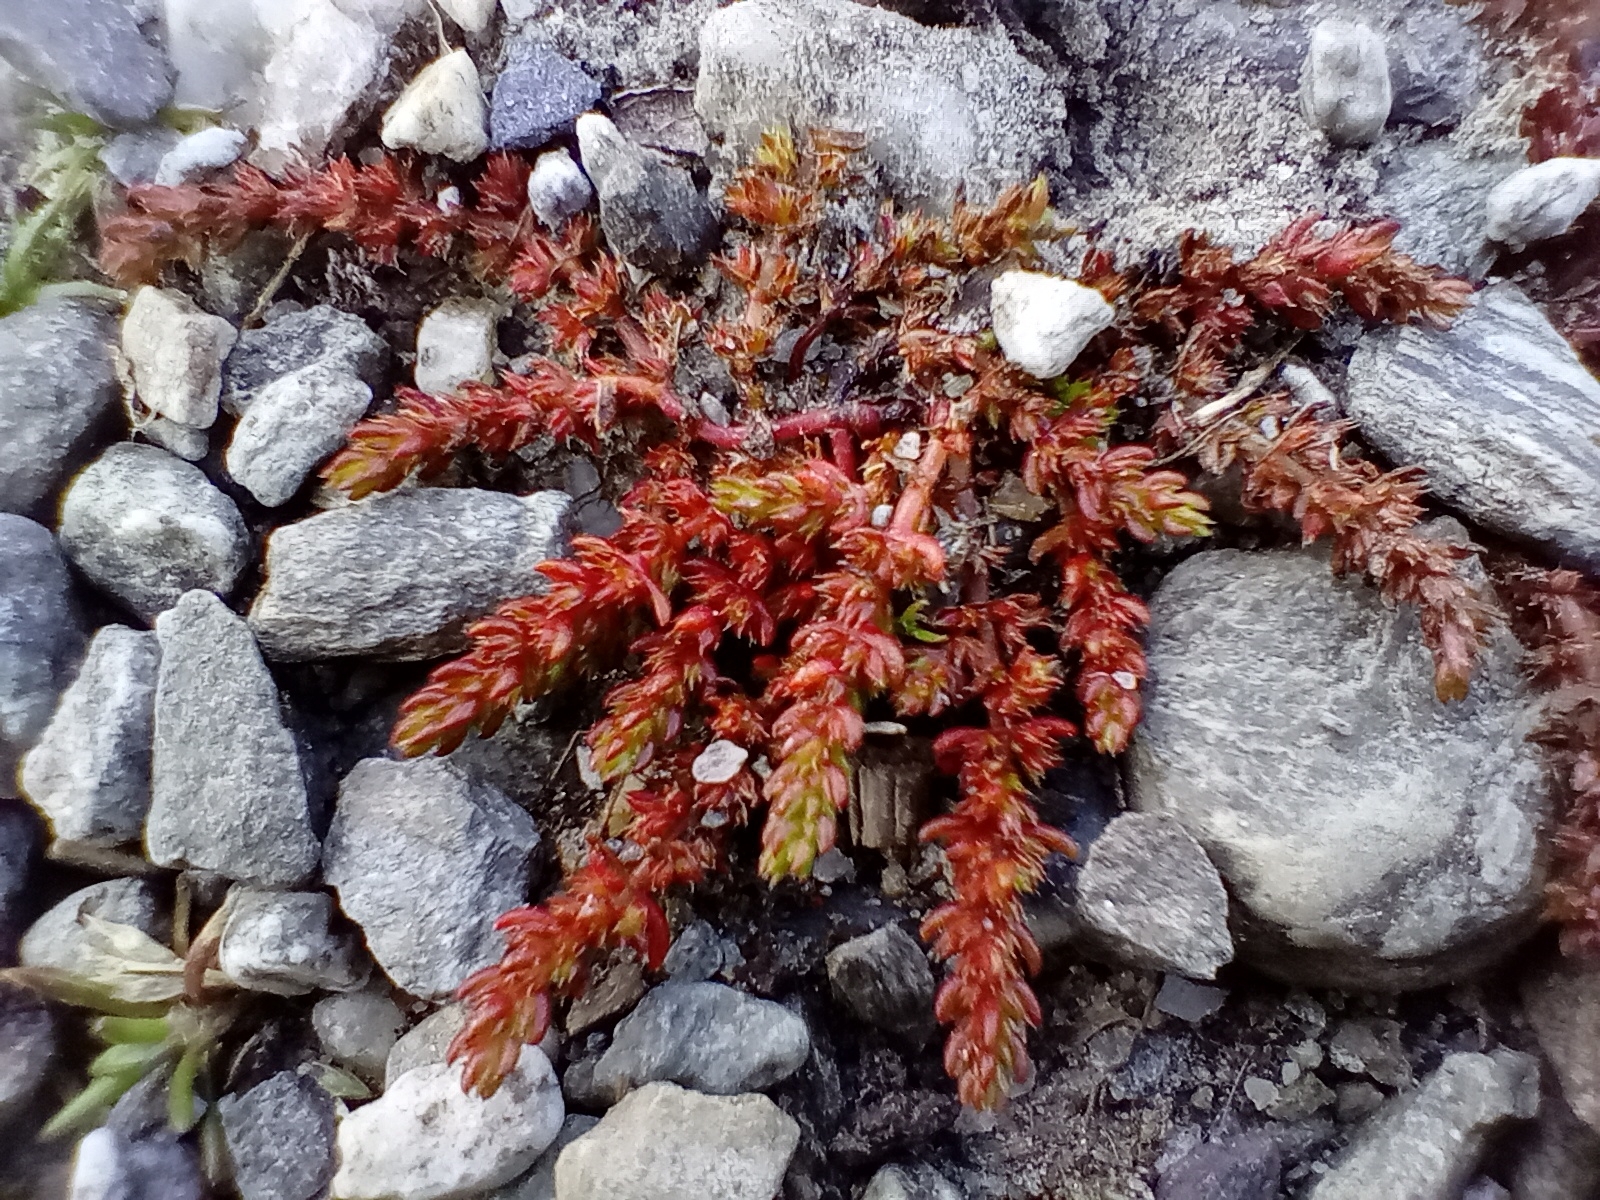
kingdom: Plantae
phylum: Tracheophyta
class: Magnoliopsida
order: Saxifragales
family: Crassulaceae
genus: Crassula
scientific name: Crassula alata
